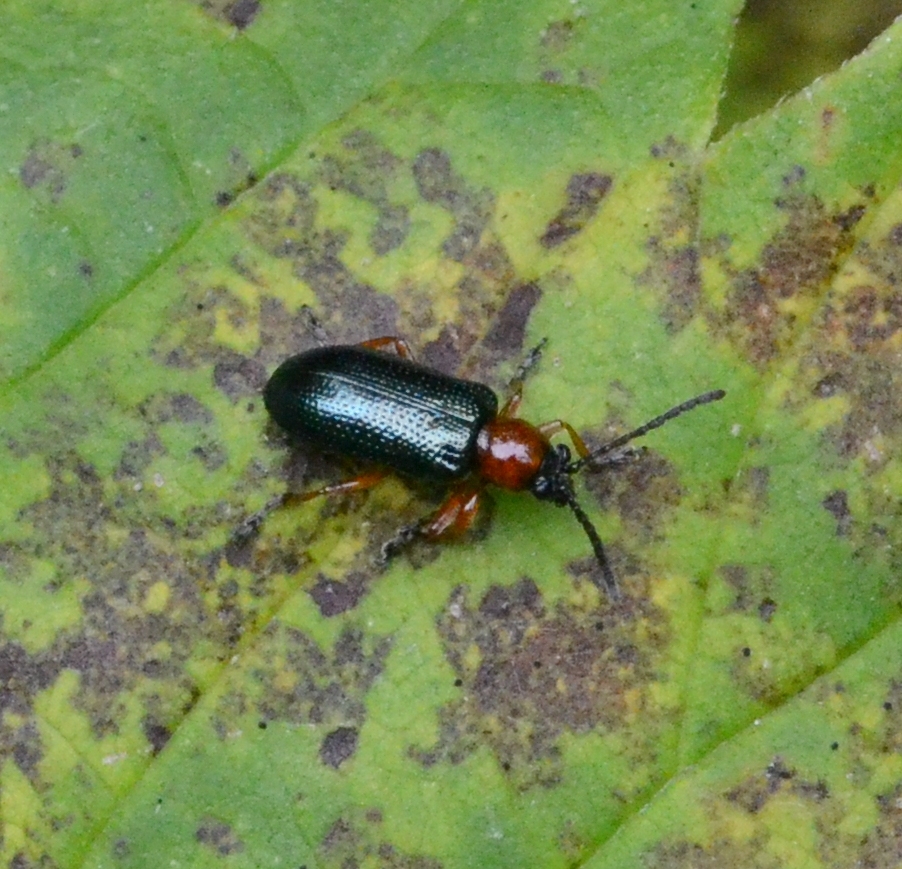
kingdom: Animalia
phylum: Arthropoda
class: Insecta
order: Coleoptera
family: Chrysomelidae
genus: Oulema
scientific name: Oulema
